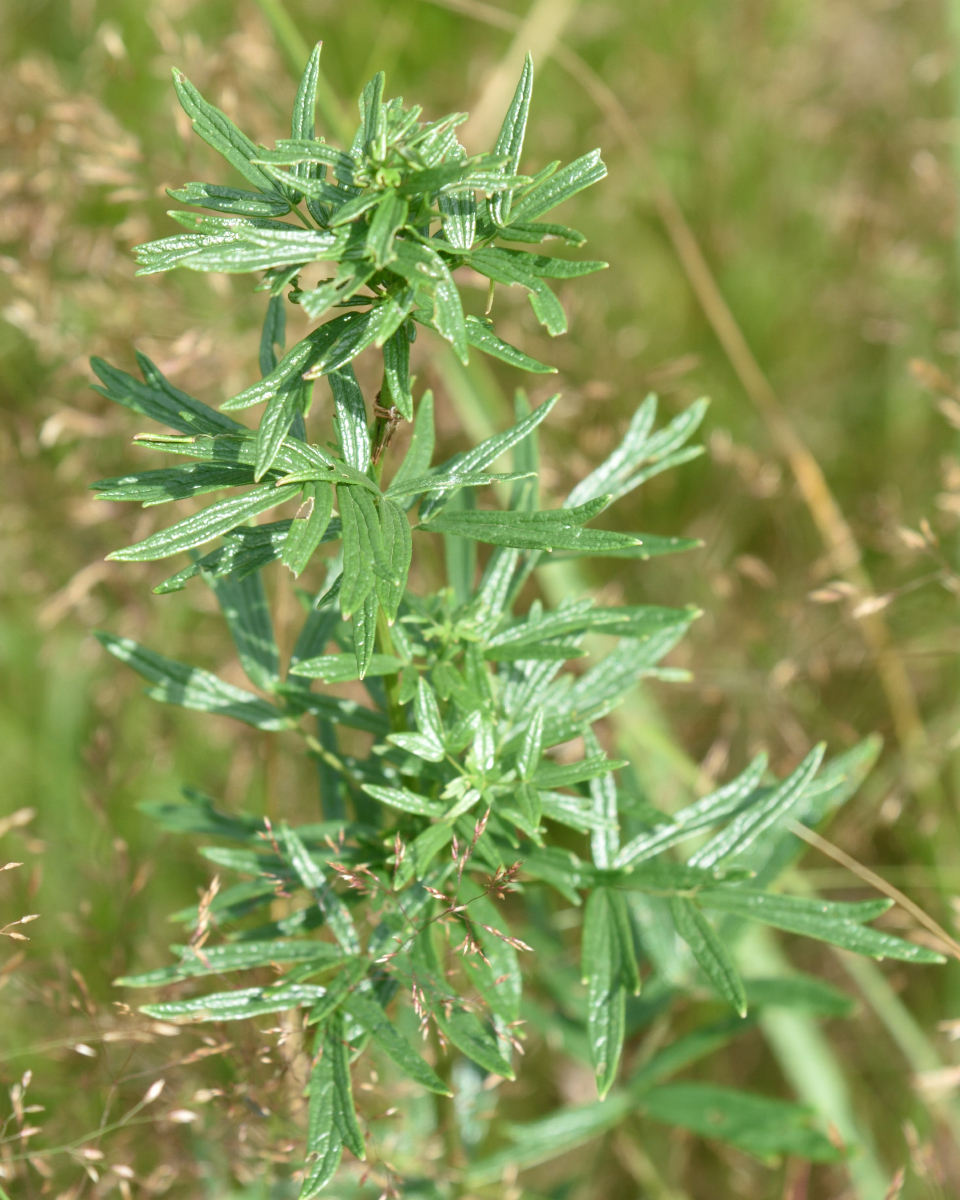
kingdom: Plantae
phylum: Tracheophyta
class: Magnoliopsida
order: Ranunculales
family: Ranunculaceae
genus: Thalictrum
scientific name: Thalictrum lucidum
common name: Shining meadow-rue
